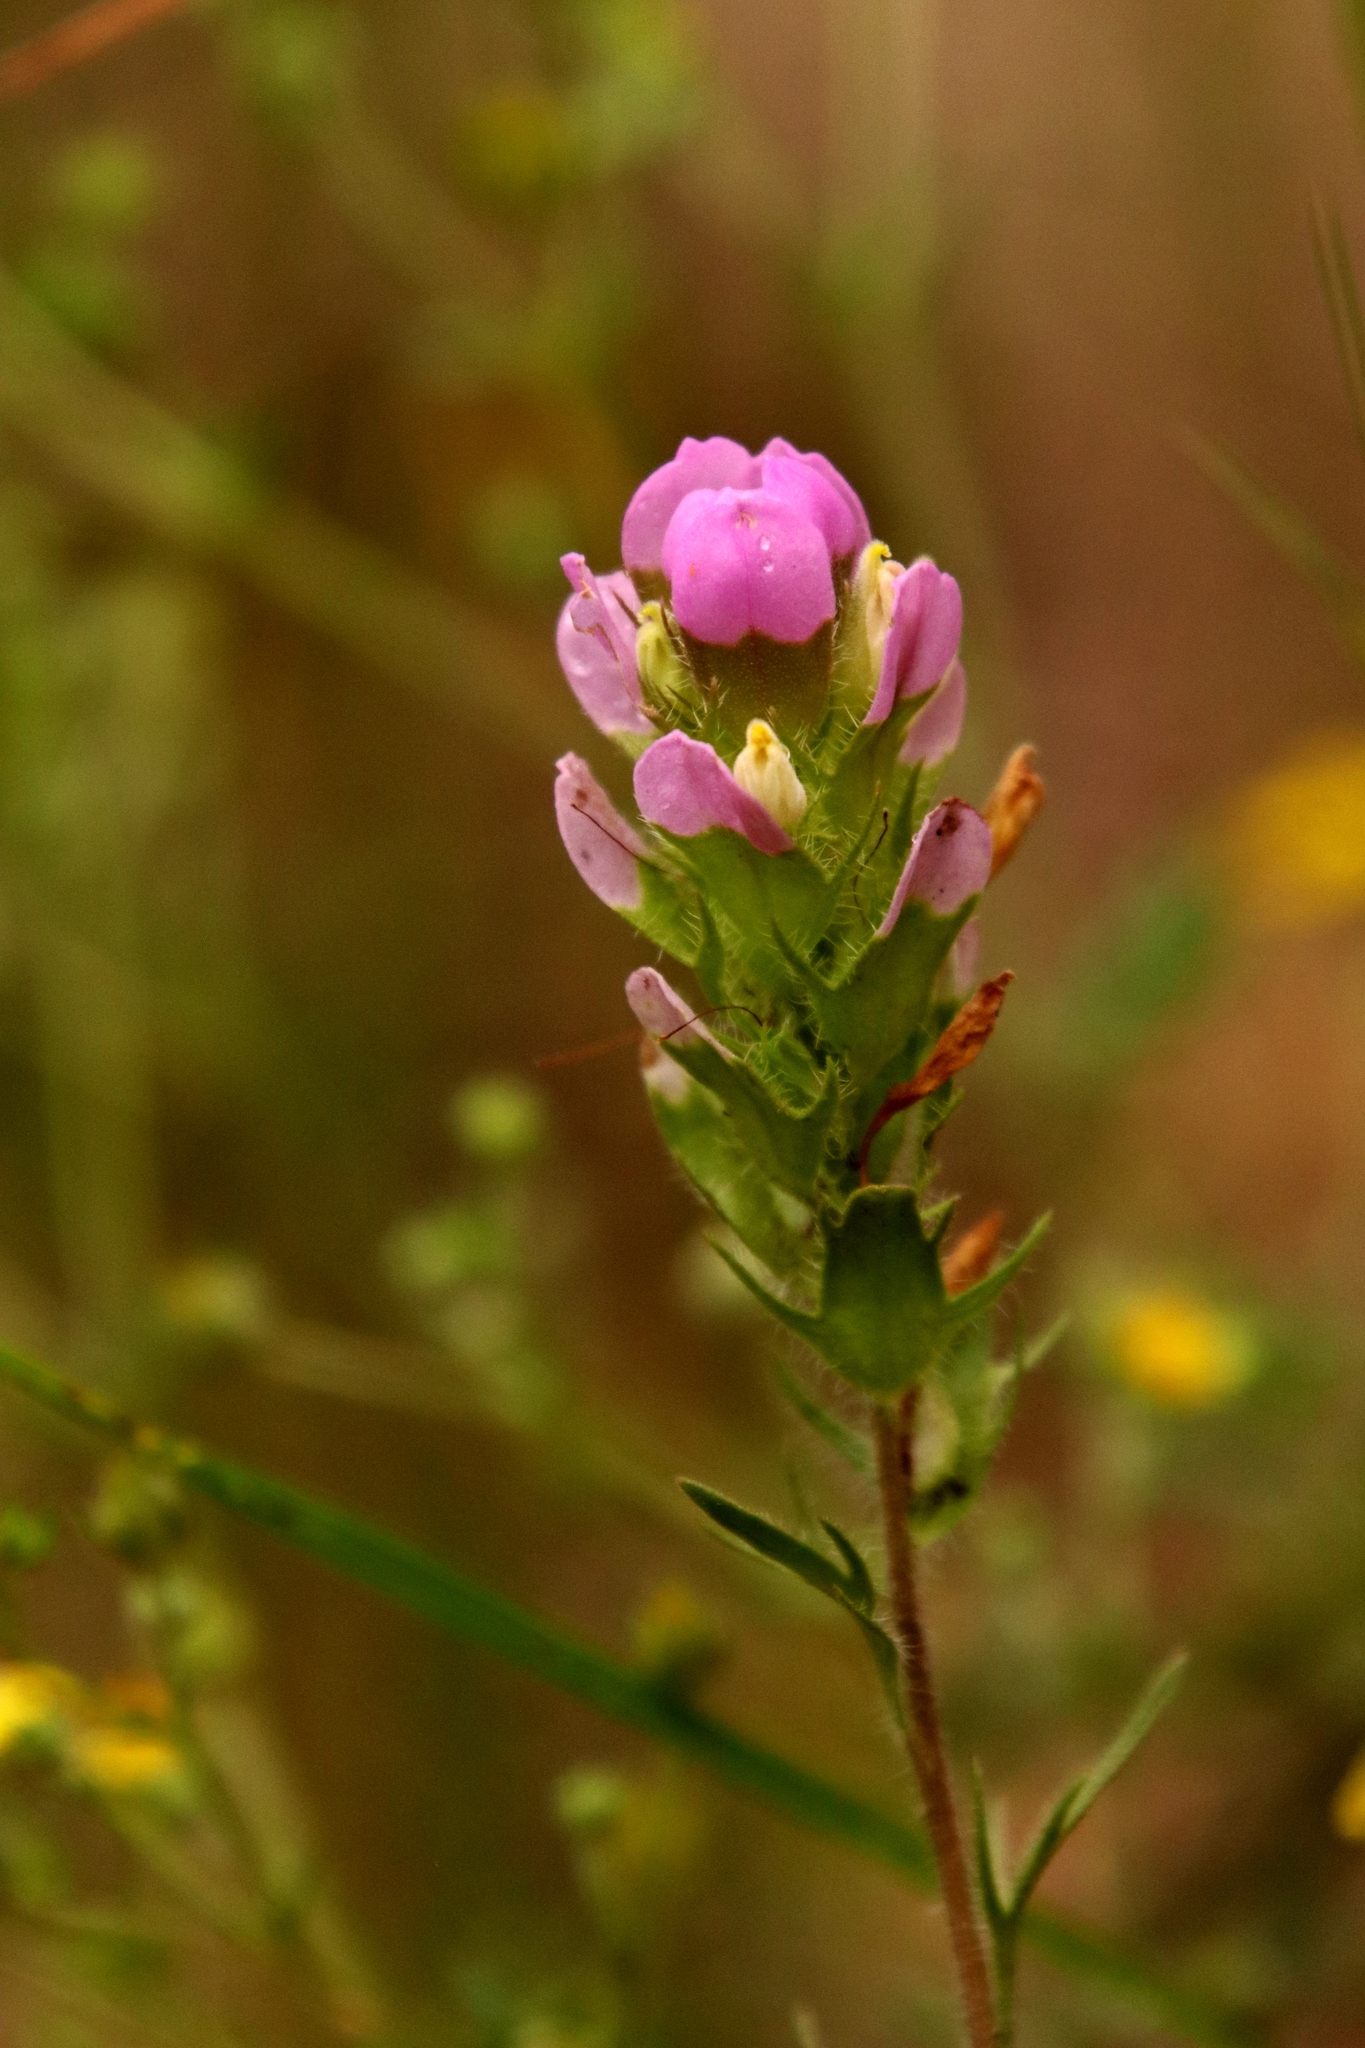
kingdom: Plantae
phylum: Tracheophyta
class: Magnoliopsida
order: Lamiales
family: Orobanchaceae
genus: Orthocarpus
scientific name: Orthocarpus tenuifolius
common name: Thin-leaved owl's-clover
